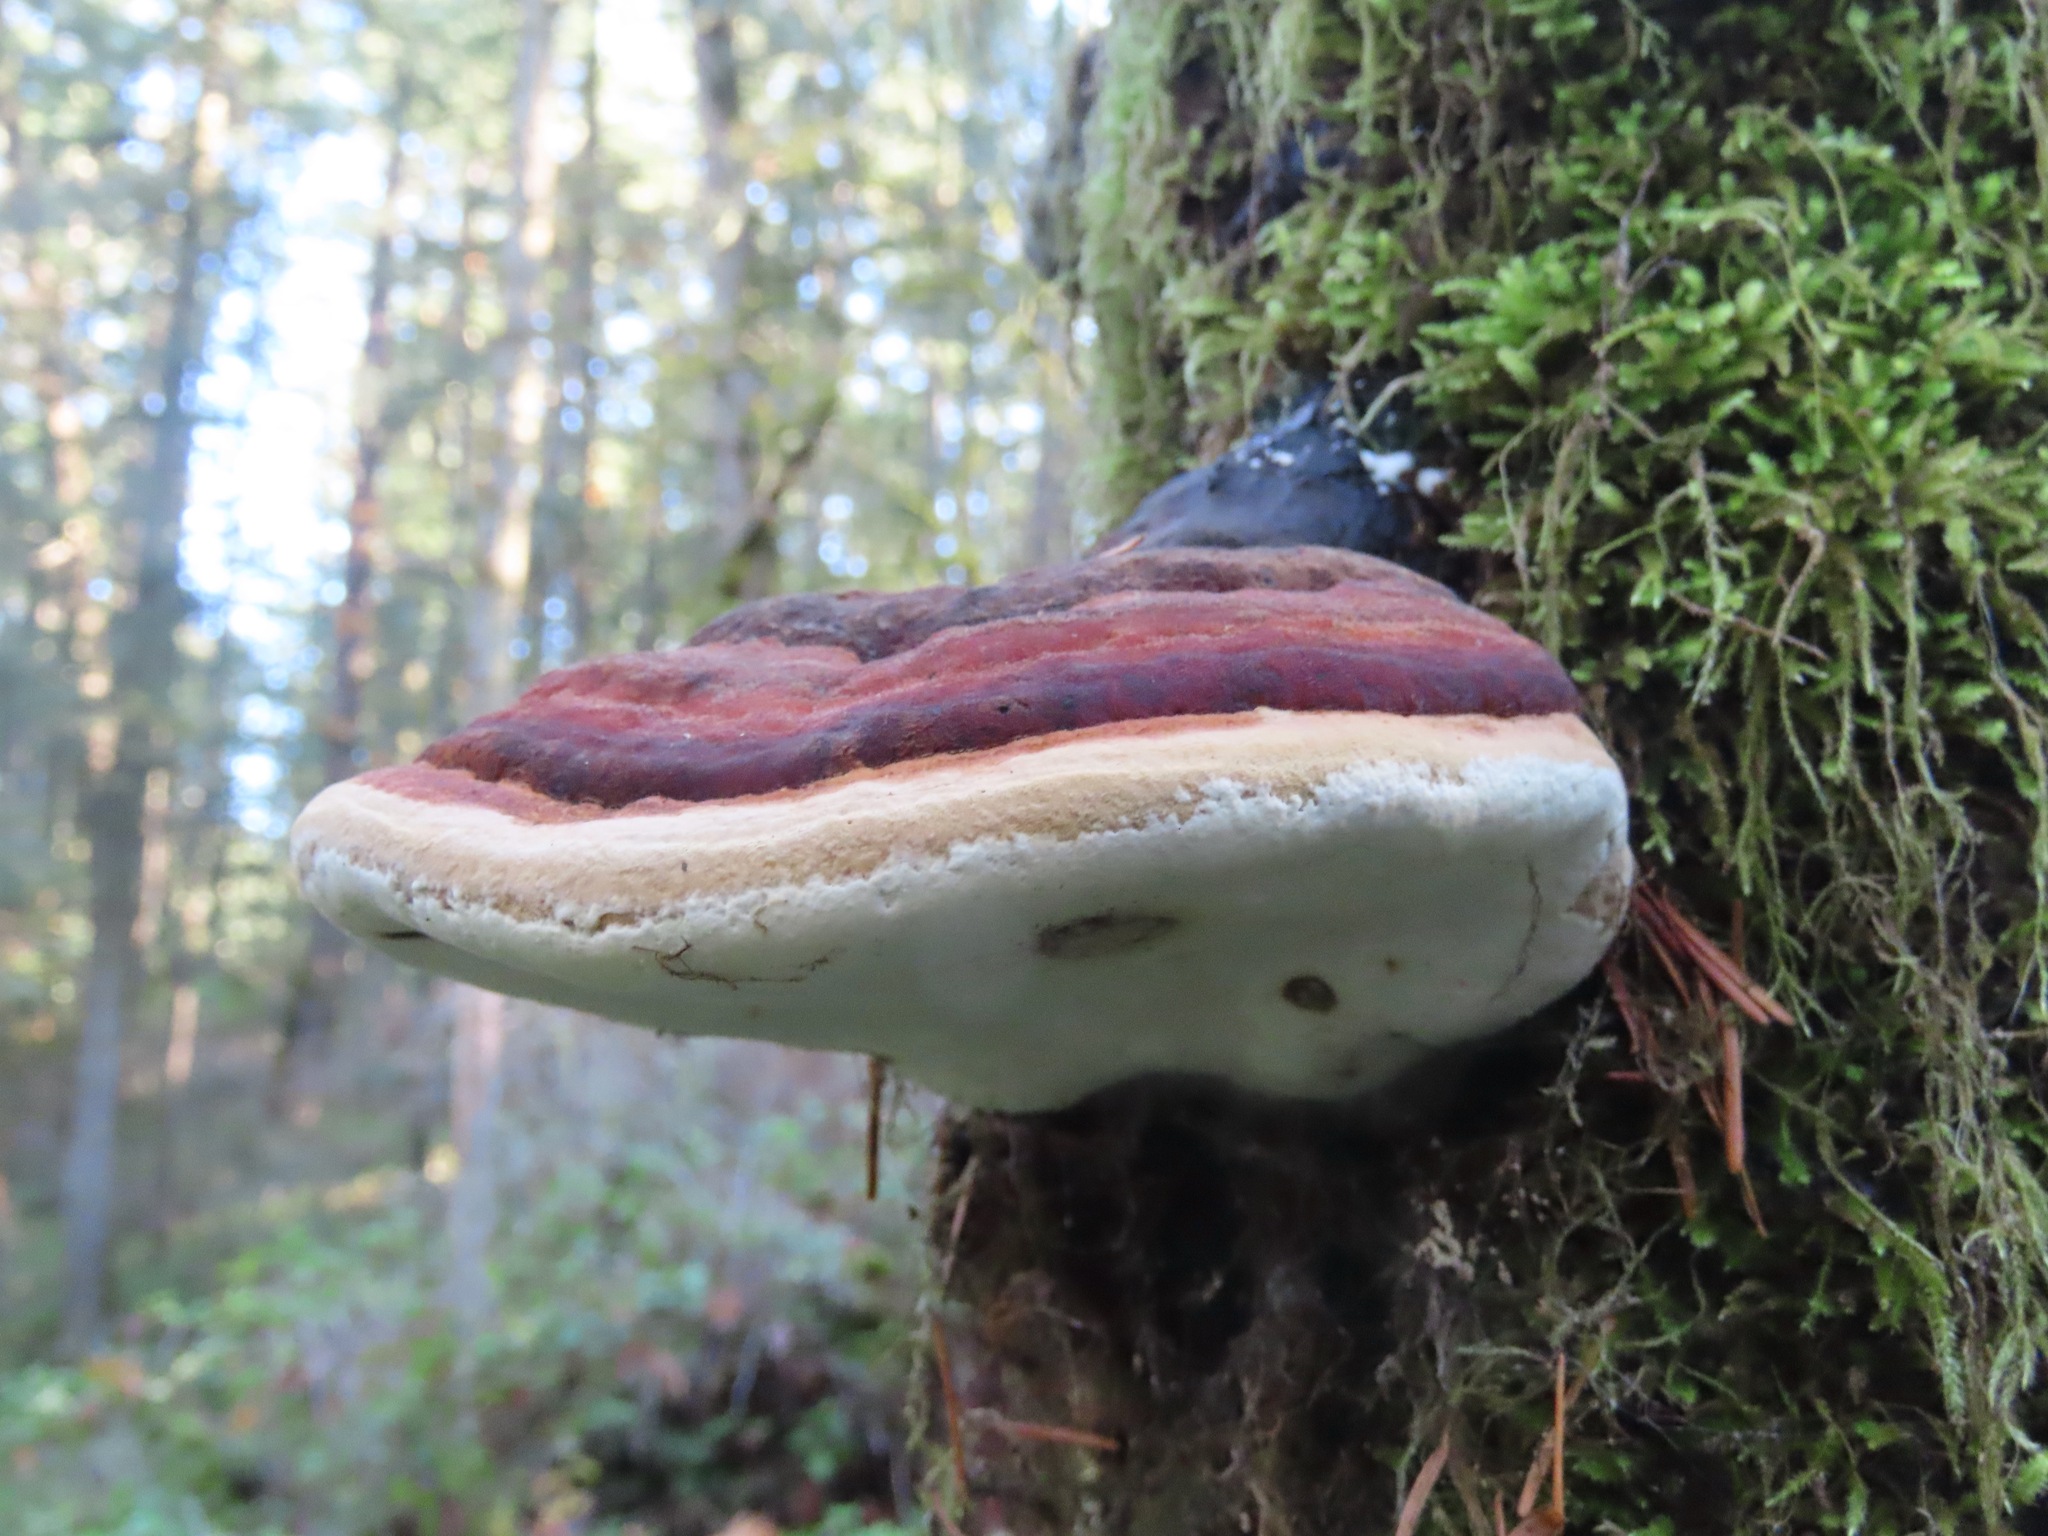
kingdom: Fungi
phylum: Basidiomycota
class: Agaricomycetes
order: Polyporales
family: Fomitopsidaceae
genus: Fomitopsis
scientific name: Fomitopsis mounceae
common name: Northern red belt
